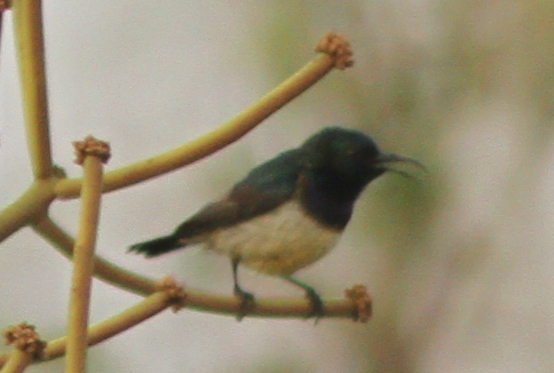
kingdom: Animalia
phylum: Chordata
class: Aves
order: Passeriformes
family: Nectariniidae
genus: Cinnyris
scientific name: Cinnyris venustus
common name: Variable sunbird
